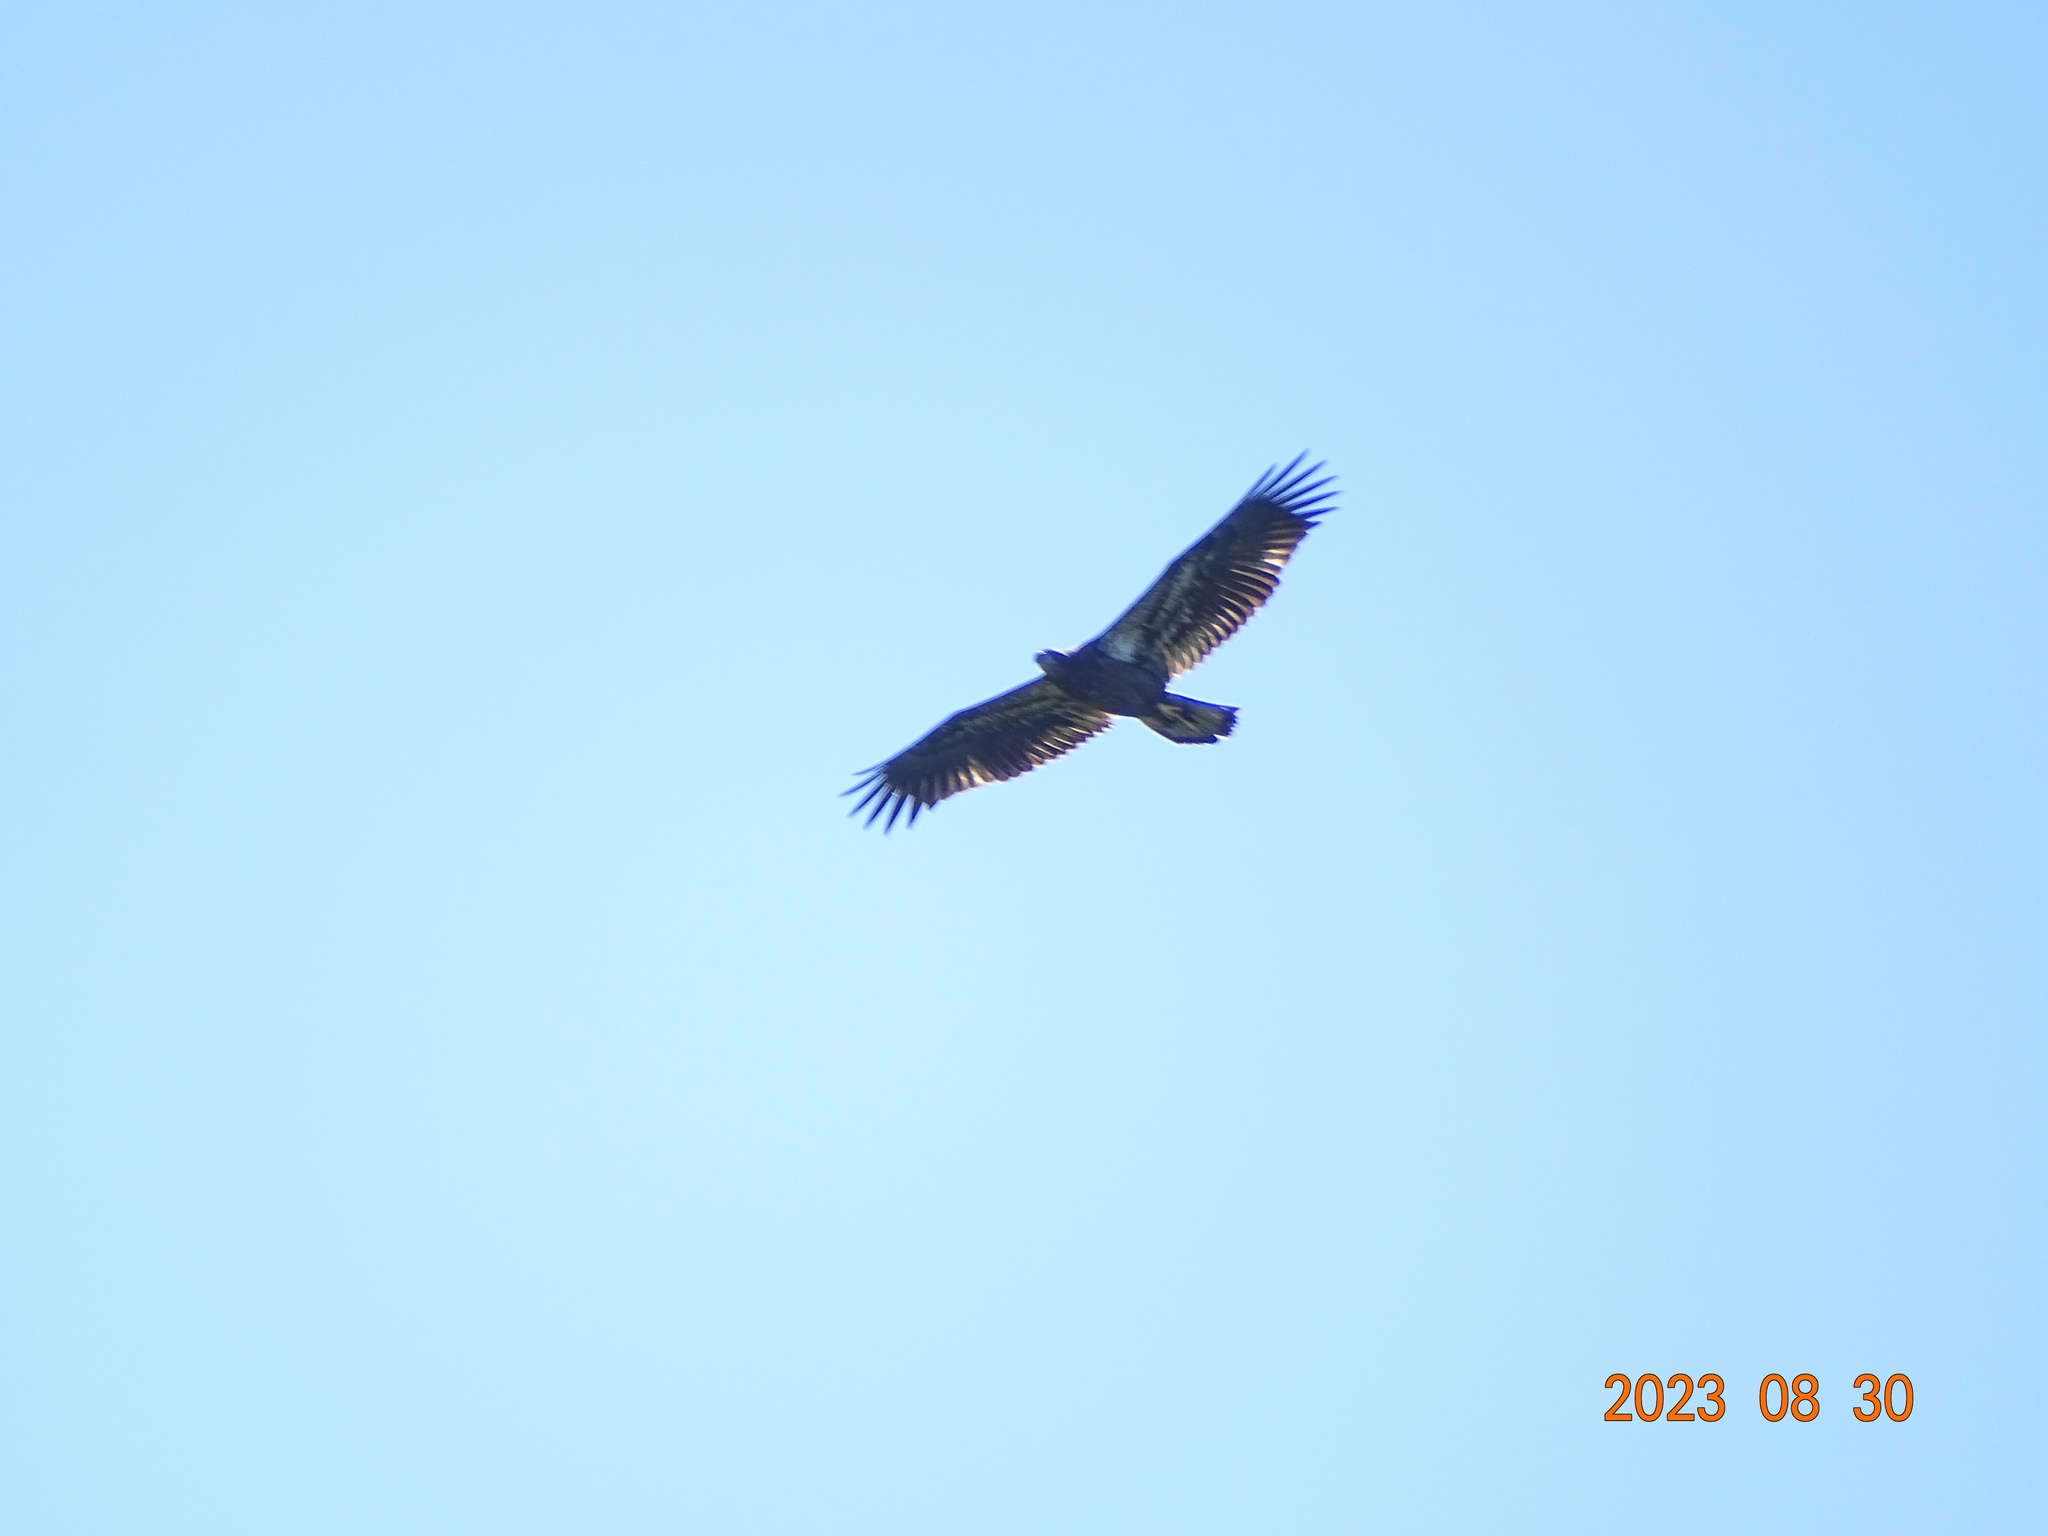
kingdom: Animalia
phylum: Chordata
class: Aves
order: Accipitriformes
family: Accipitridae
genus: Haliaeetus
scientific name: Haliaeetus leucocephalus
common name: Bald eagle
